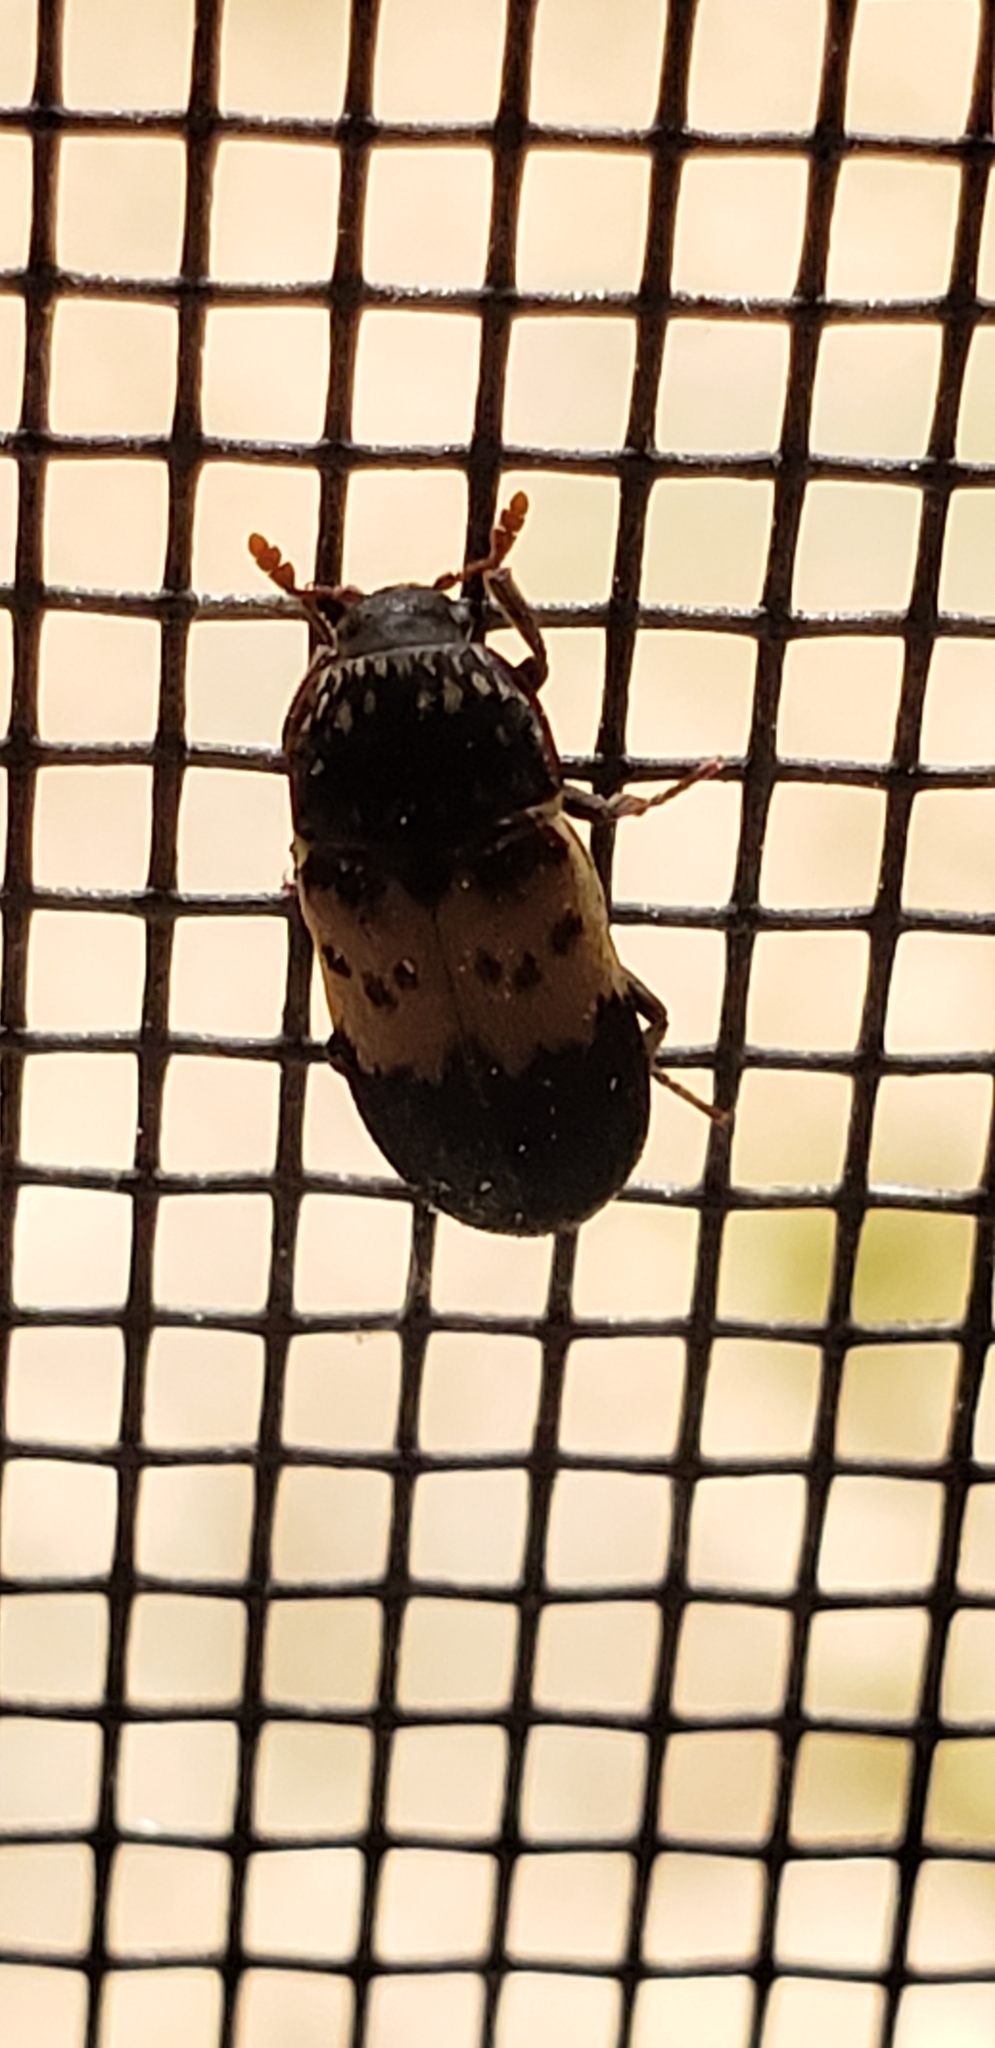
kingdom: Animalia
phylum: Arthropoda
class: Insecta
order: Coleoptera
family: Dermestidae
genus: Dermestes
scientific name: Dermestes lardarius
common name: Larder beetle
